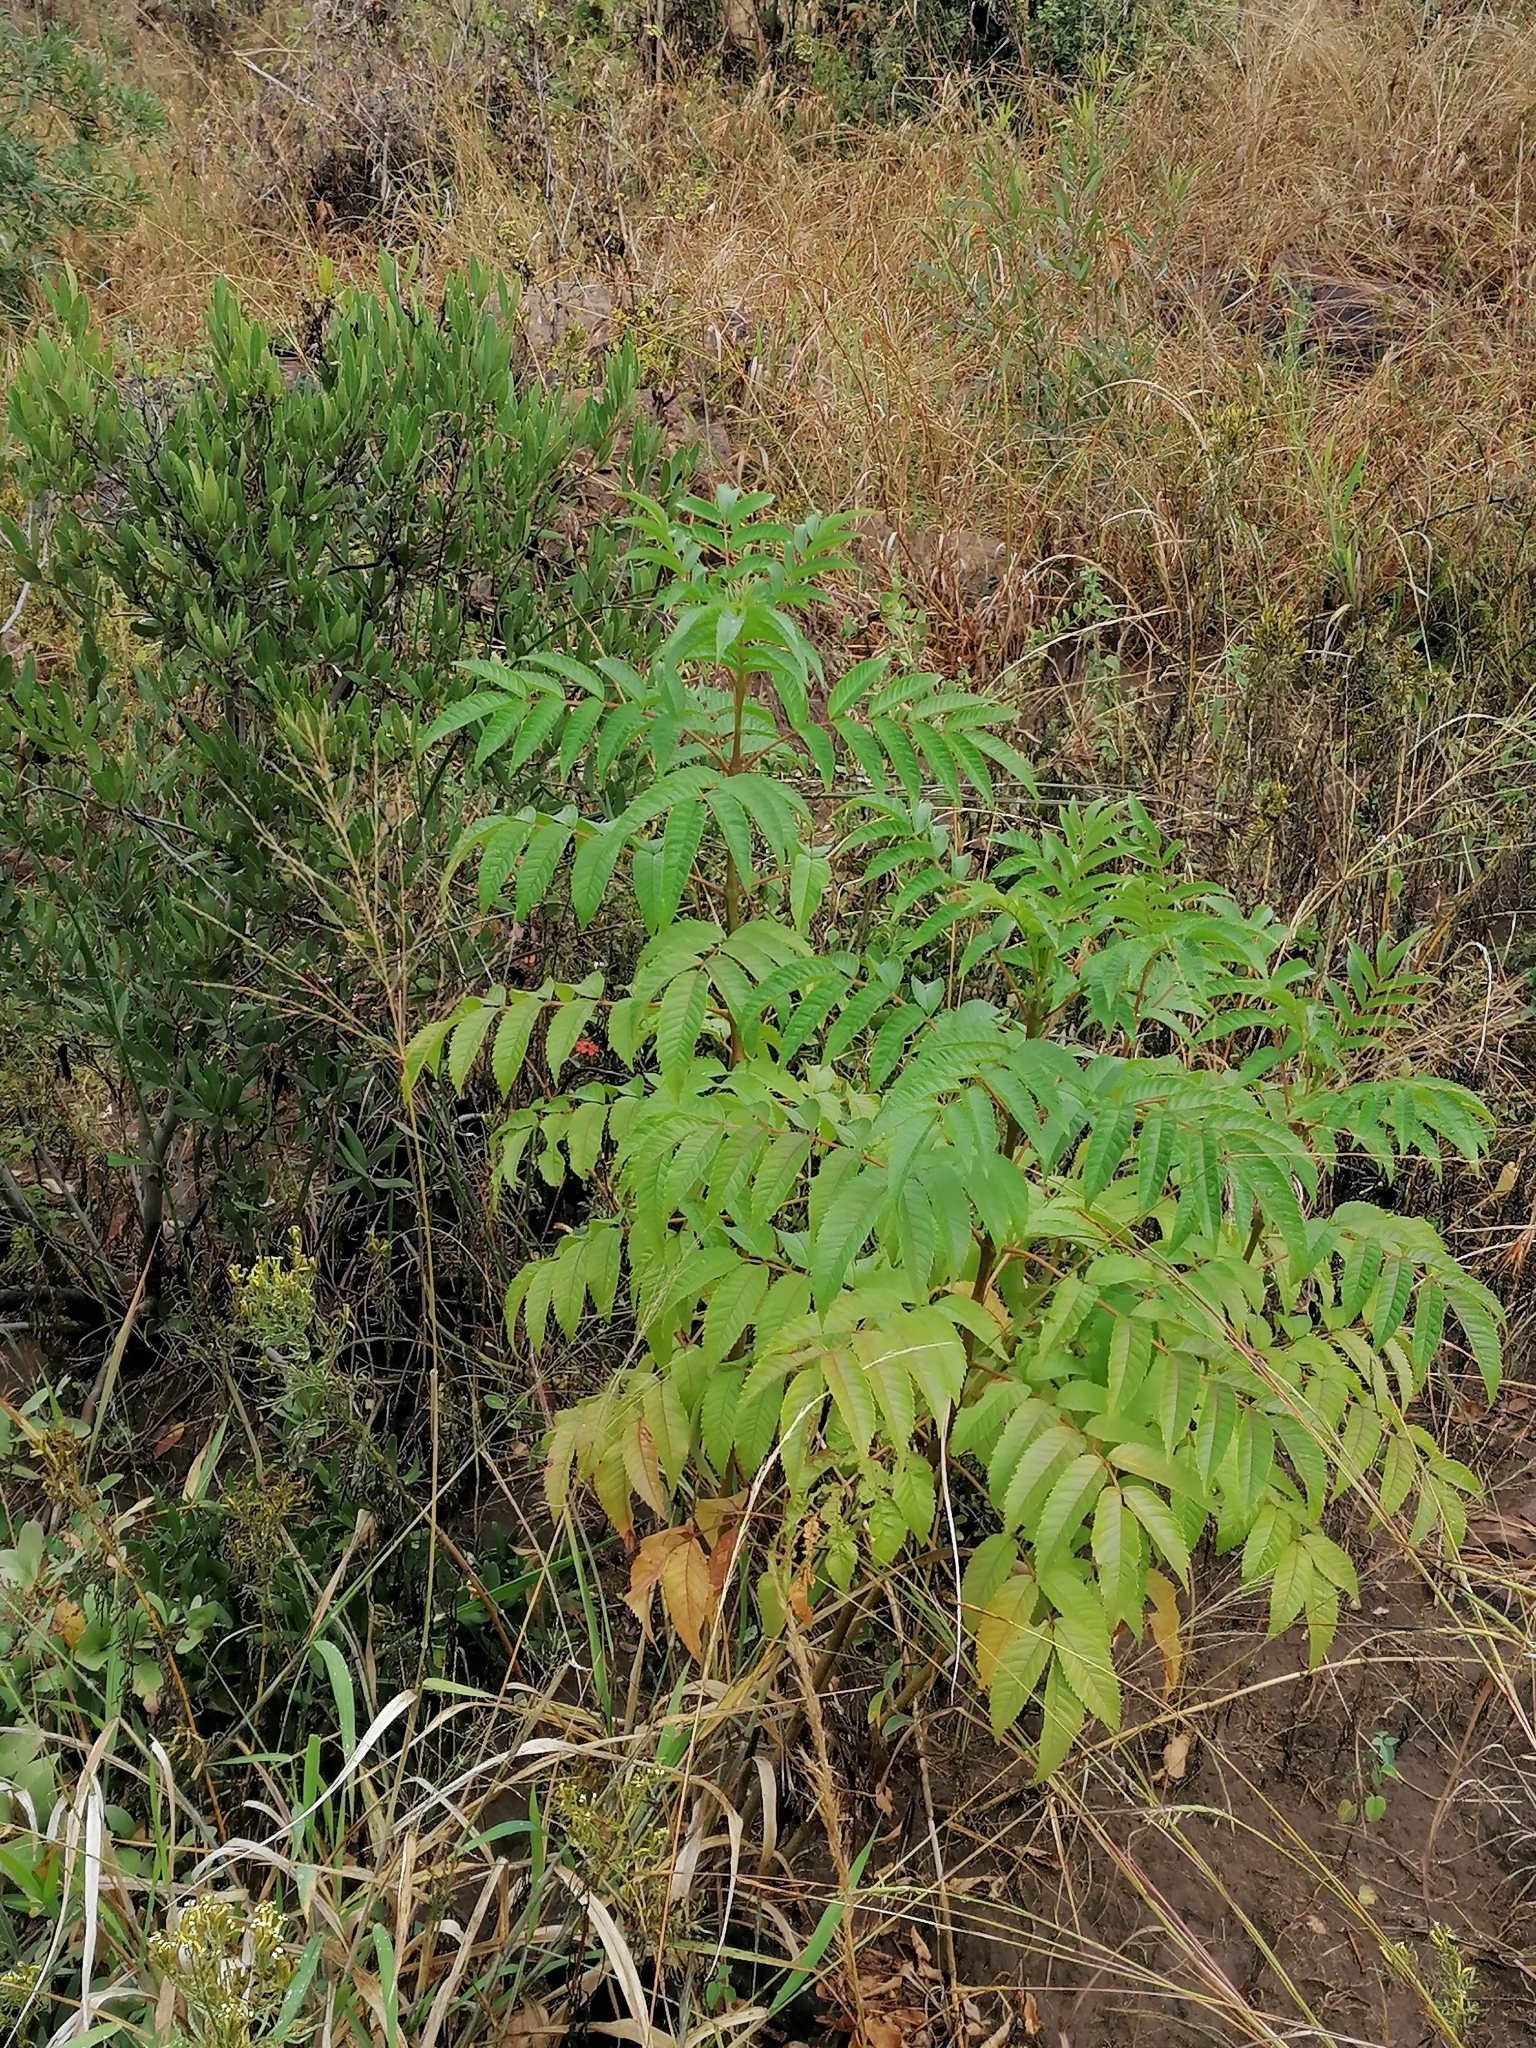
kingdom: Plantae
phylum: Tracheophyta
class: Magnoliopsida
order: Lamiales
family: Bignoniaceae
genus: Tecoma
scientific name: Tecoma stans
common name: Yellow trumpetbush
